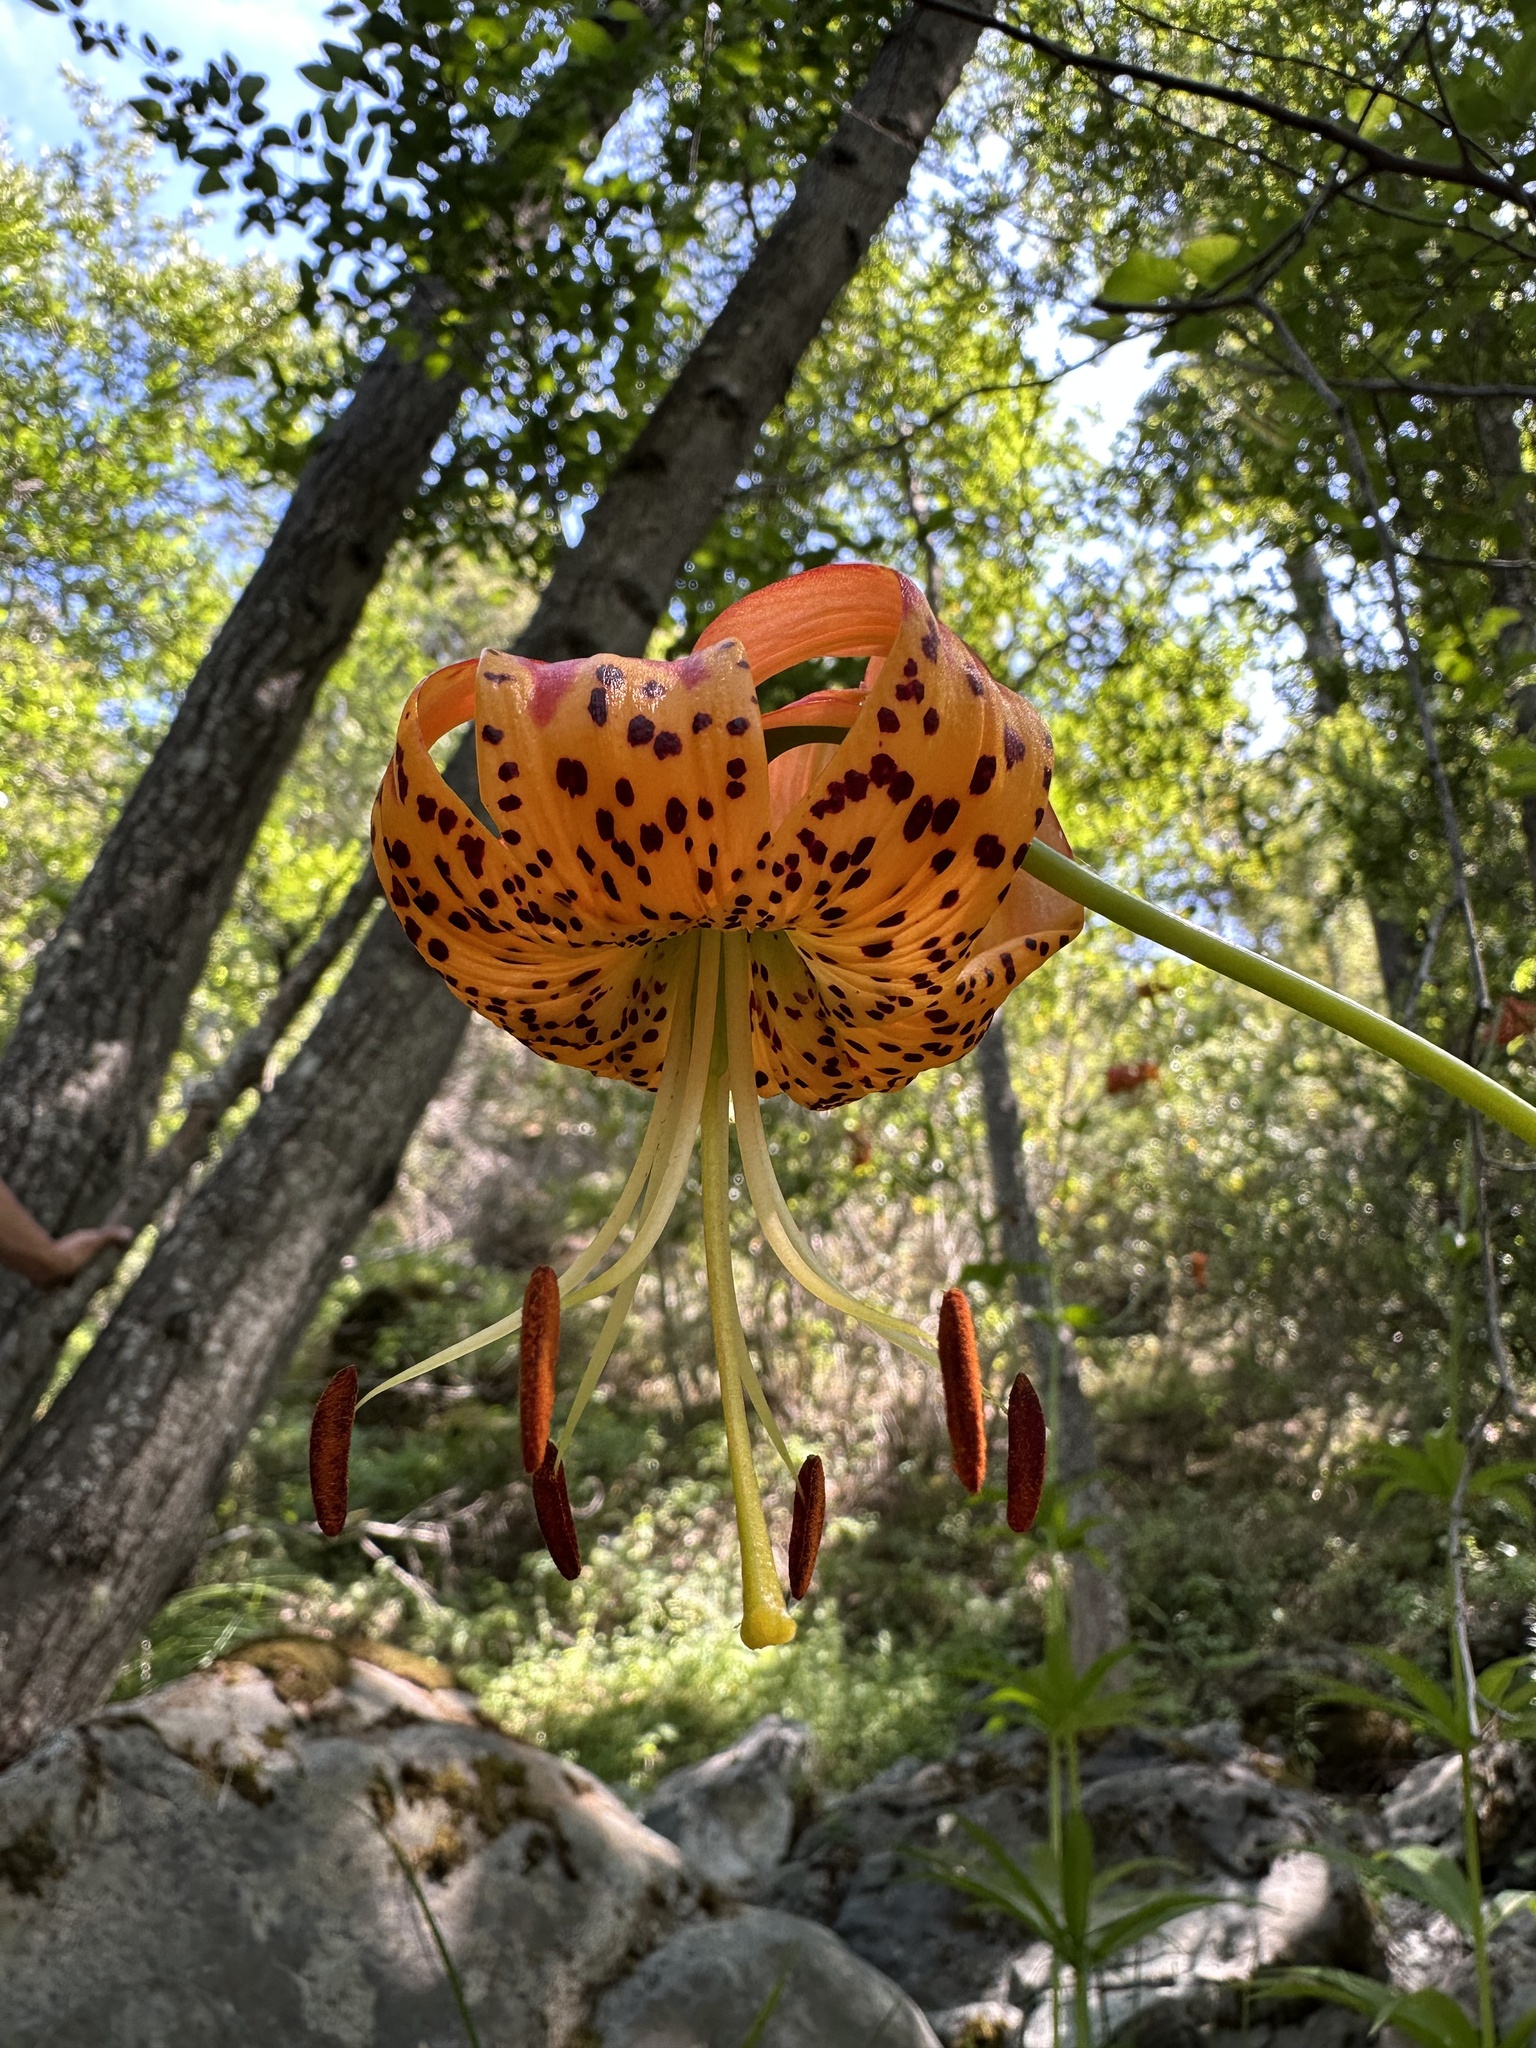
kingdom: Plantae
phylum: Tracheophyta
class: Liliopsida
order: Liliales
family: Liliaceae
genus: Lilium
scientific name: Lilium pardalinum
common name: Panther lily
